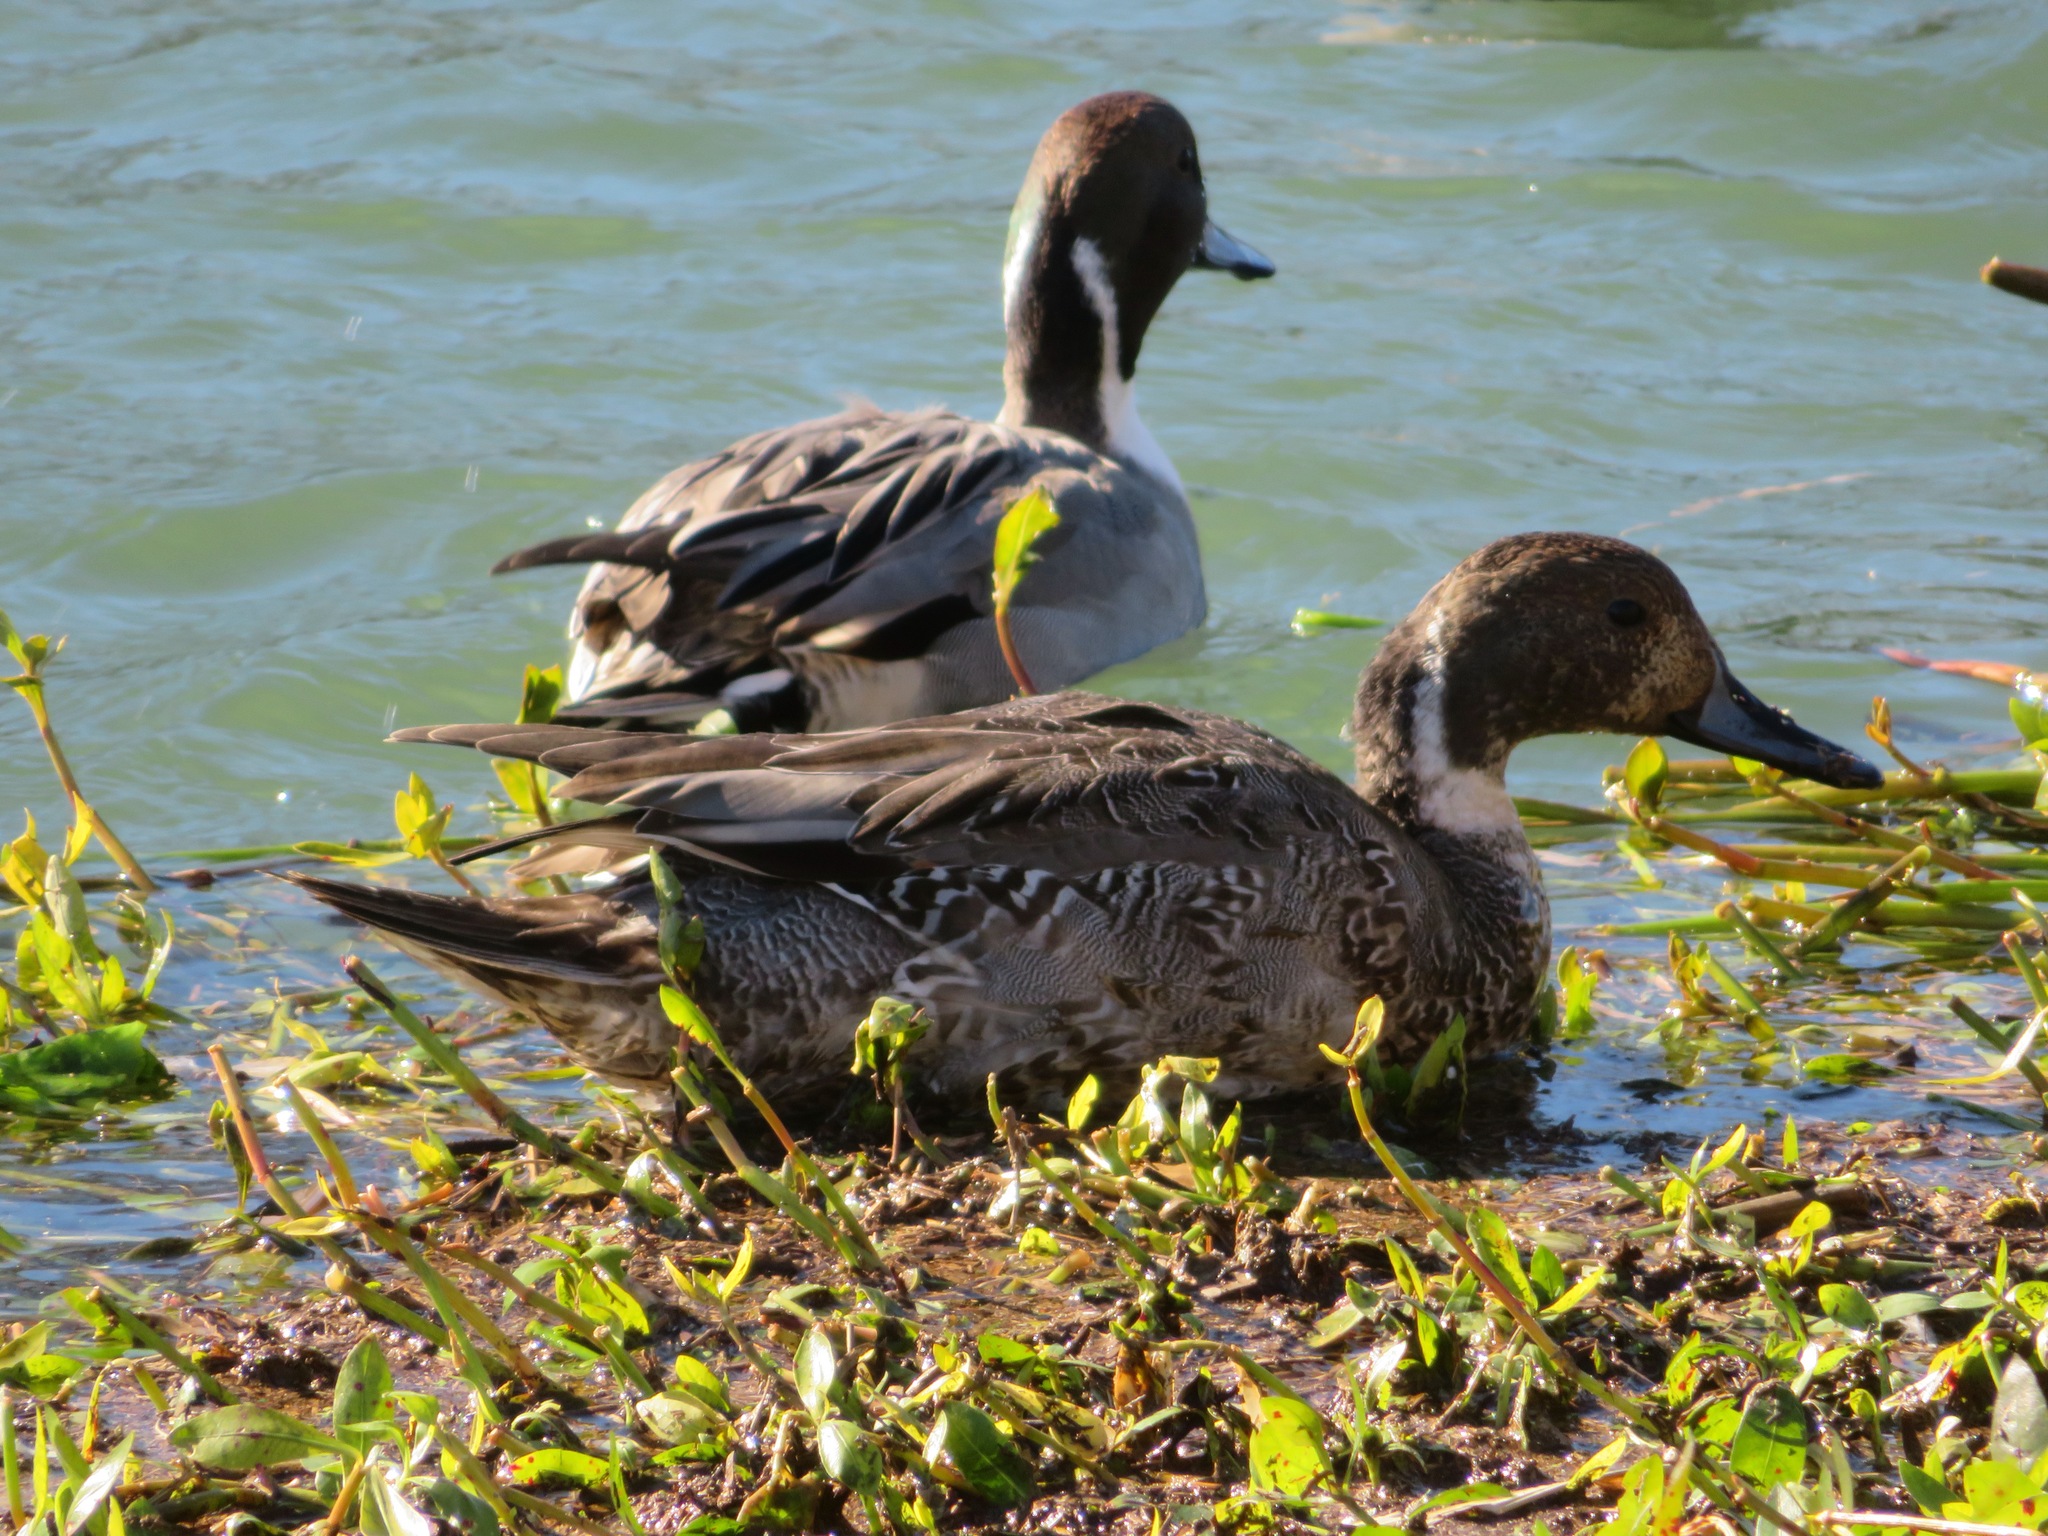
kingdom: Animalia
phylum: Chordata
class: Aves
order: Anseriformes
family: Anatidae
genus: Anas
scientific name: Anas acuta
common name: Northern pintail
